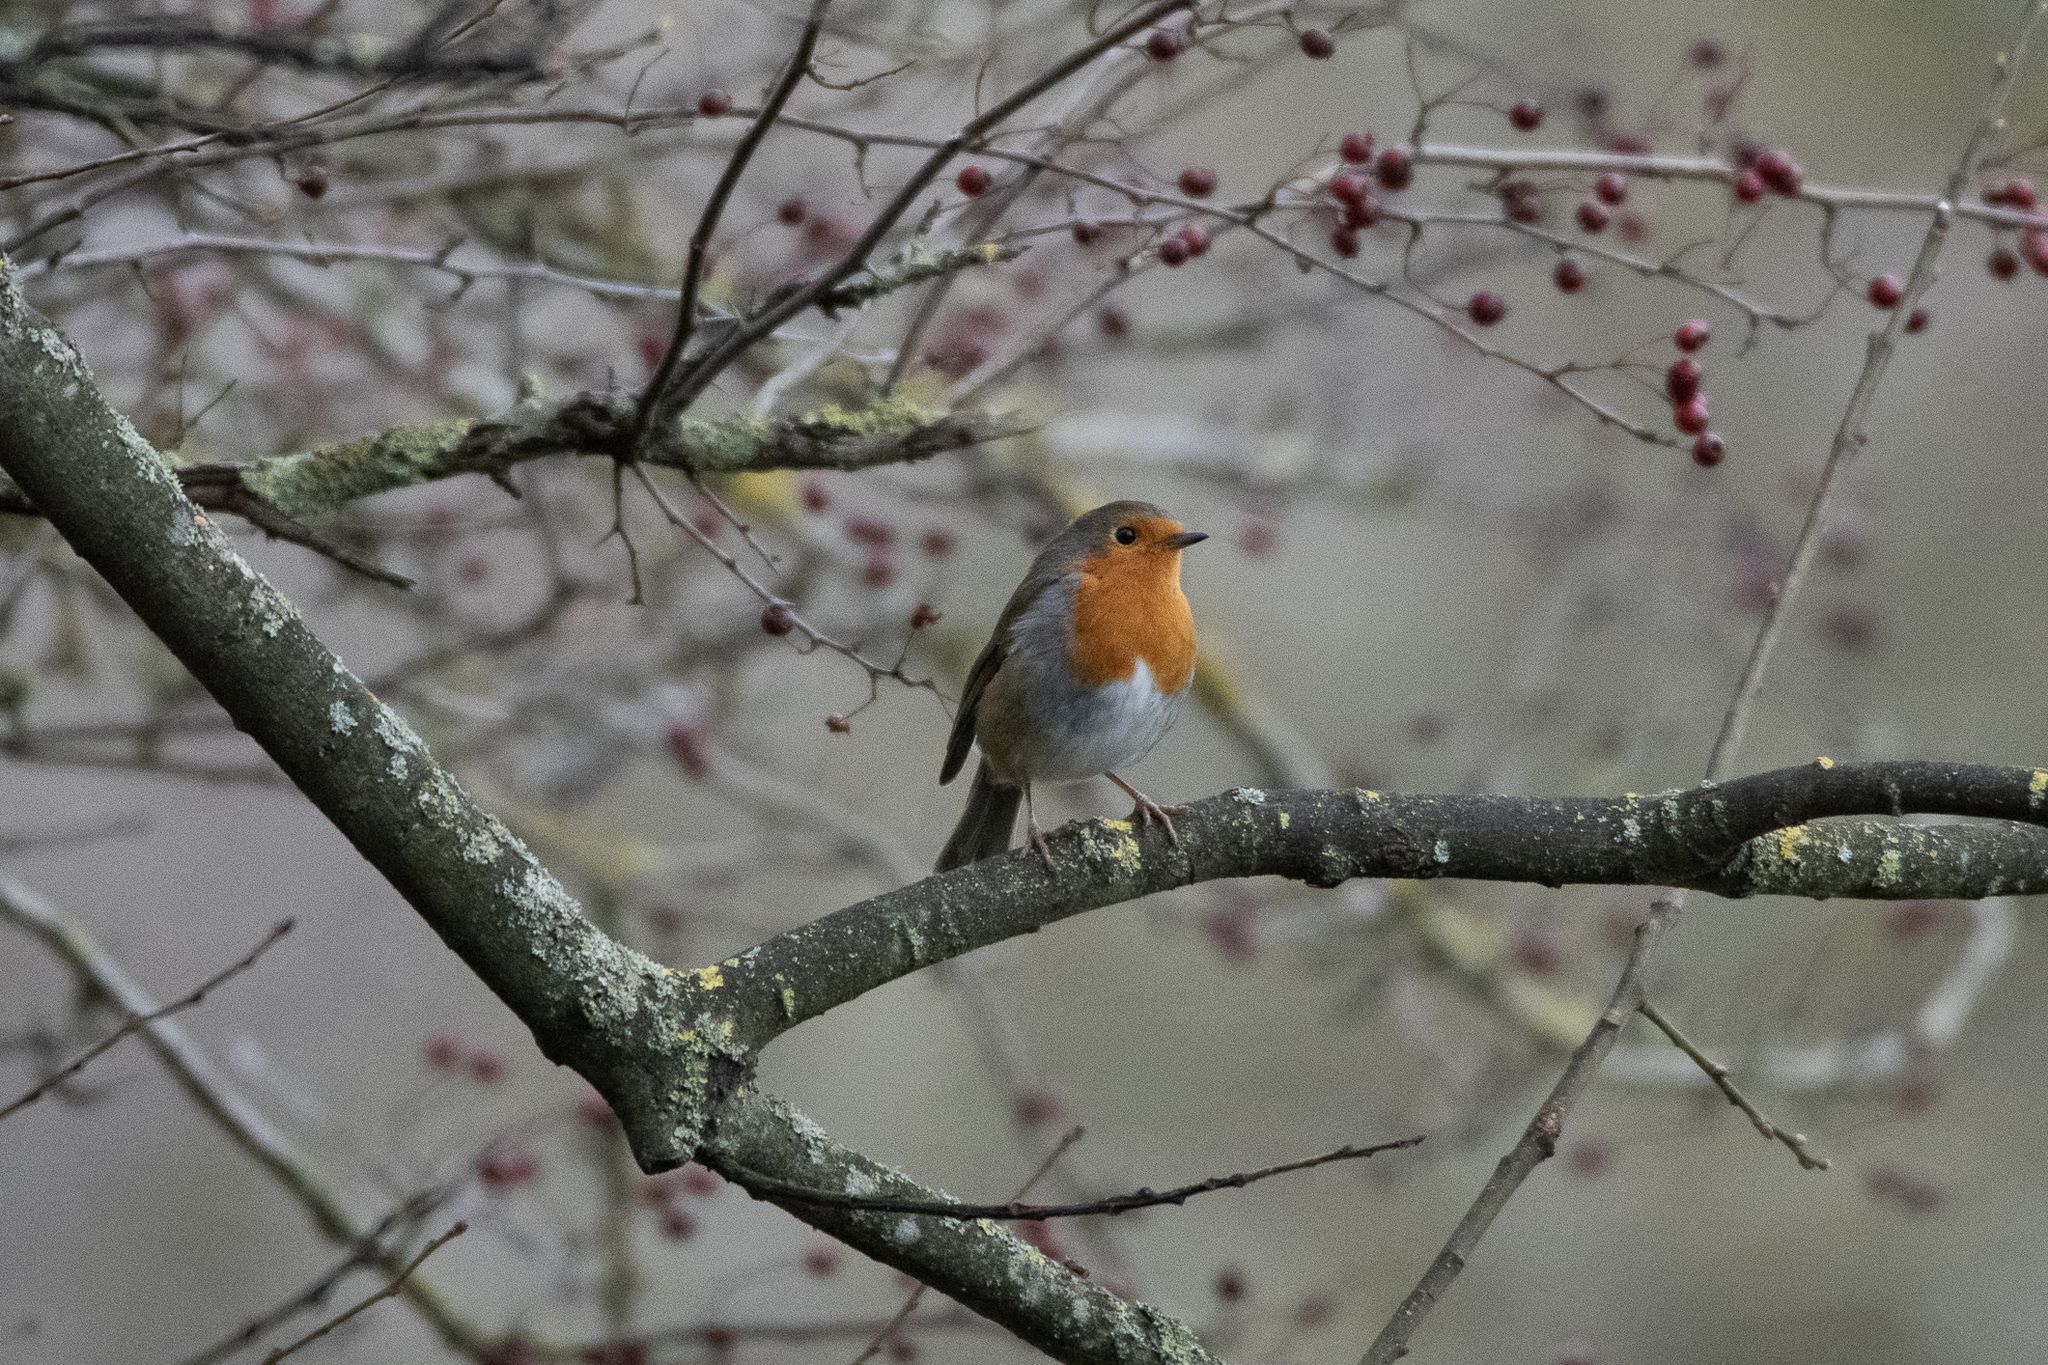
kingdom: Animalia
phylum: Chordata
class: Aves
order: Passeriformes
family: Muscicapidae
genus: Erithacus
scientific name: Erithacus rubecula
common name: European robin
